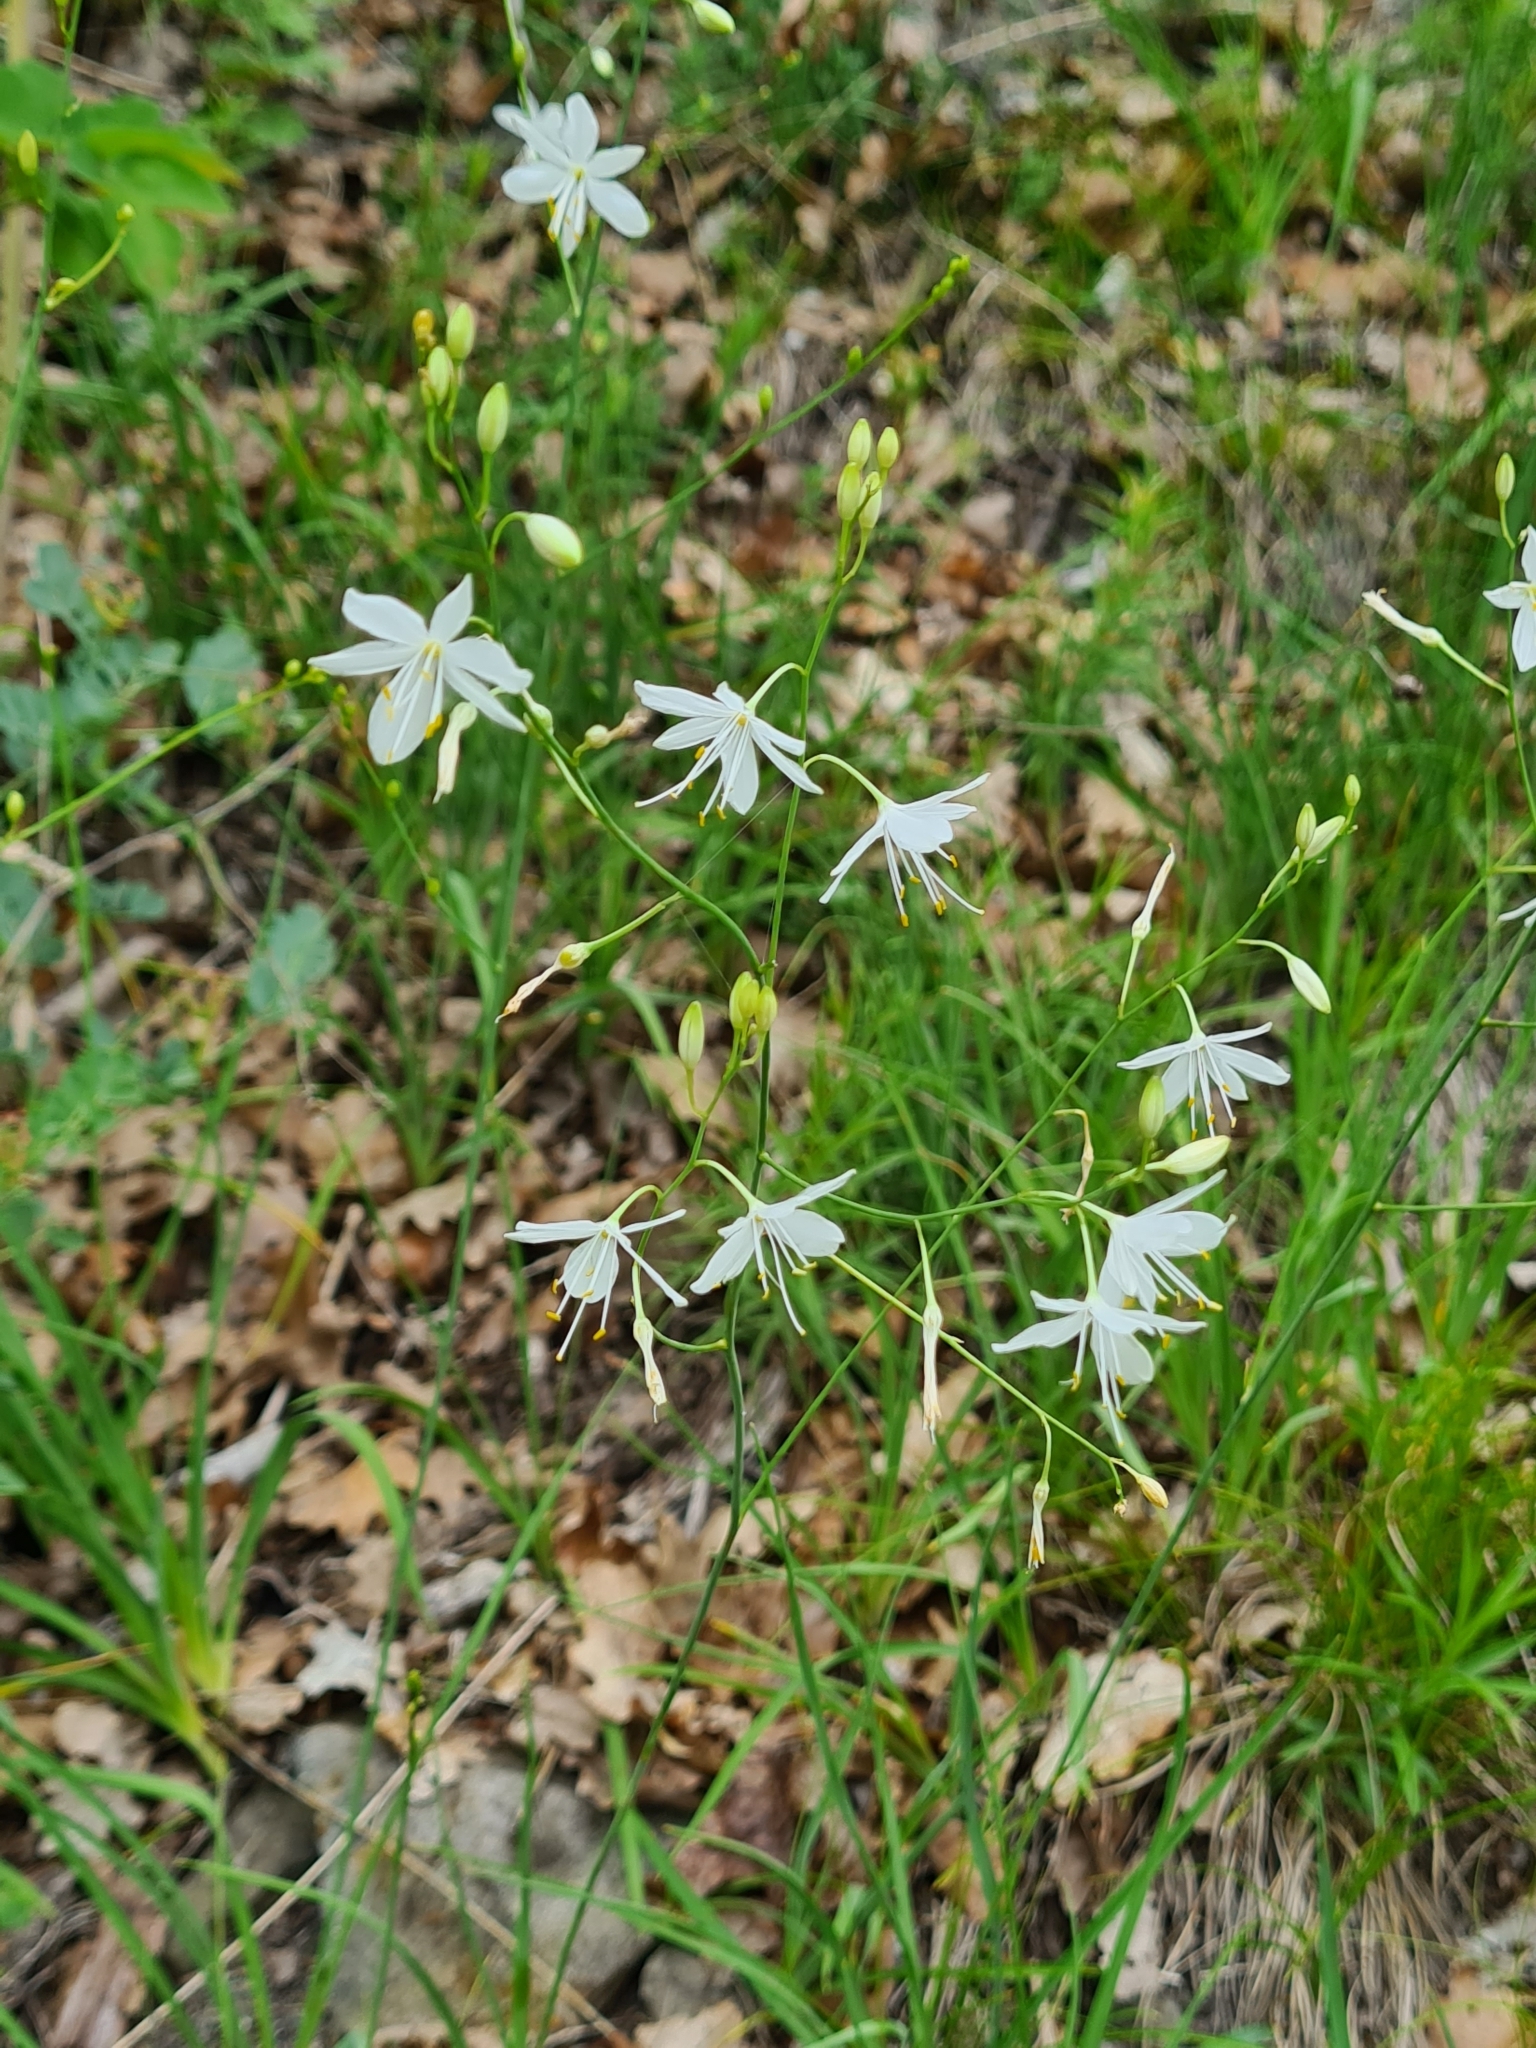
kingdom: Plantae
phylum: Tracheophyta
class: Liliopsida
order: Asparagales
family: Asparagaceae
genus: Anthericum
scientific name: Anthericum ramosum
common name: Branched st. bernard's-lily
